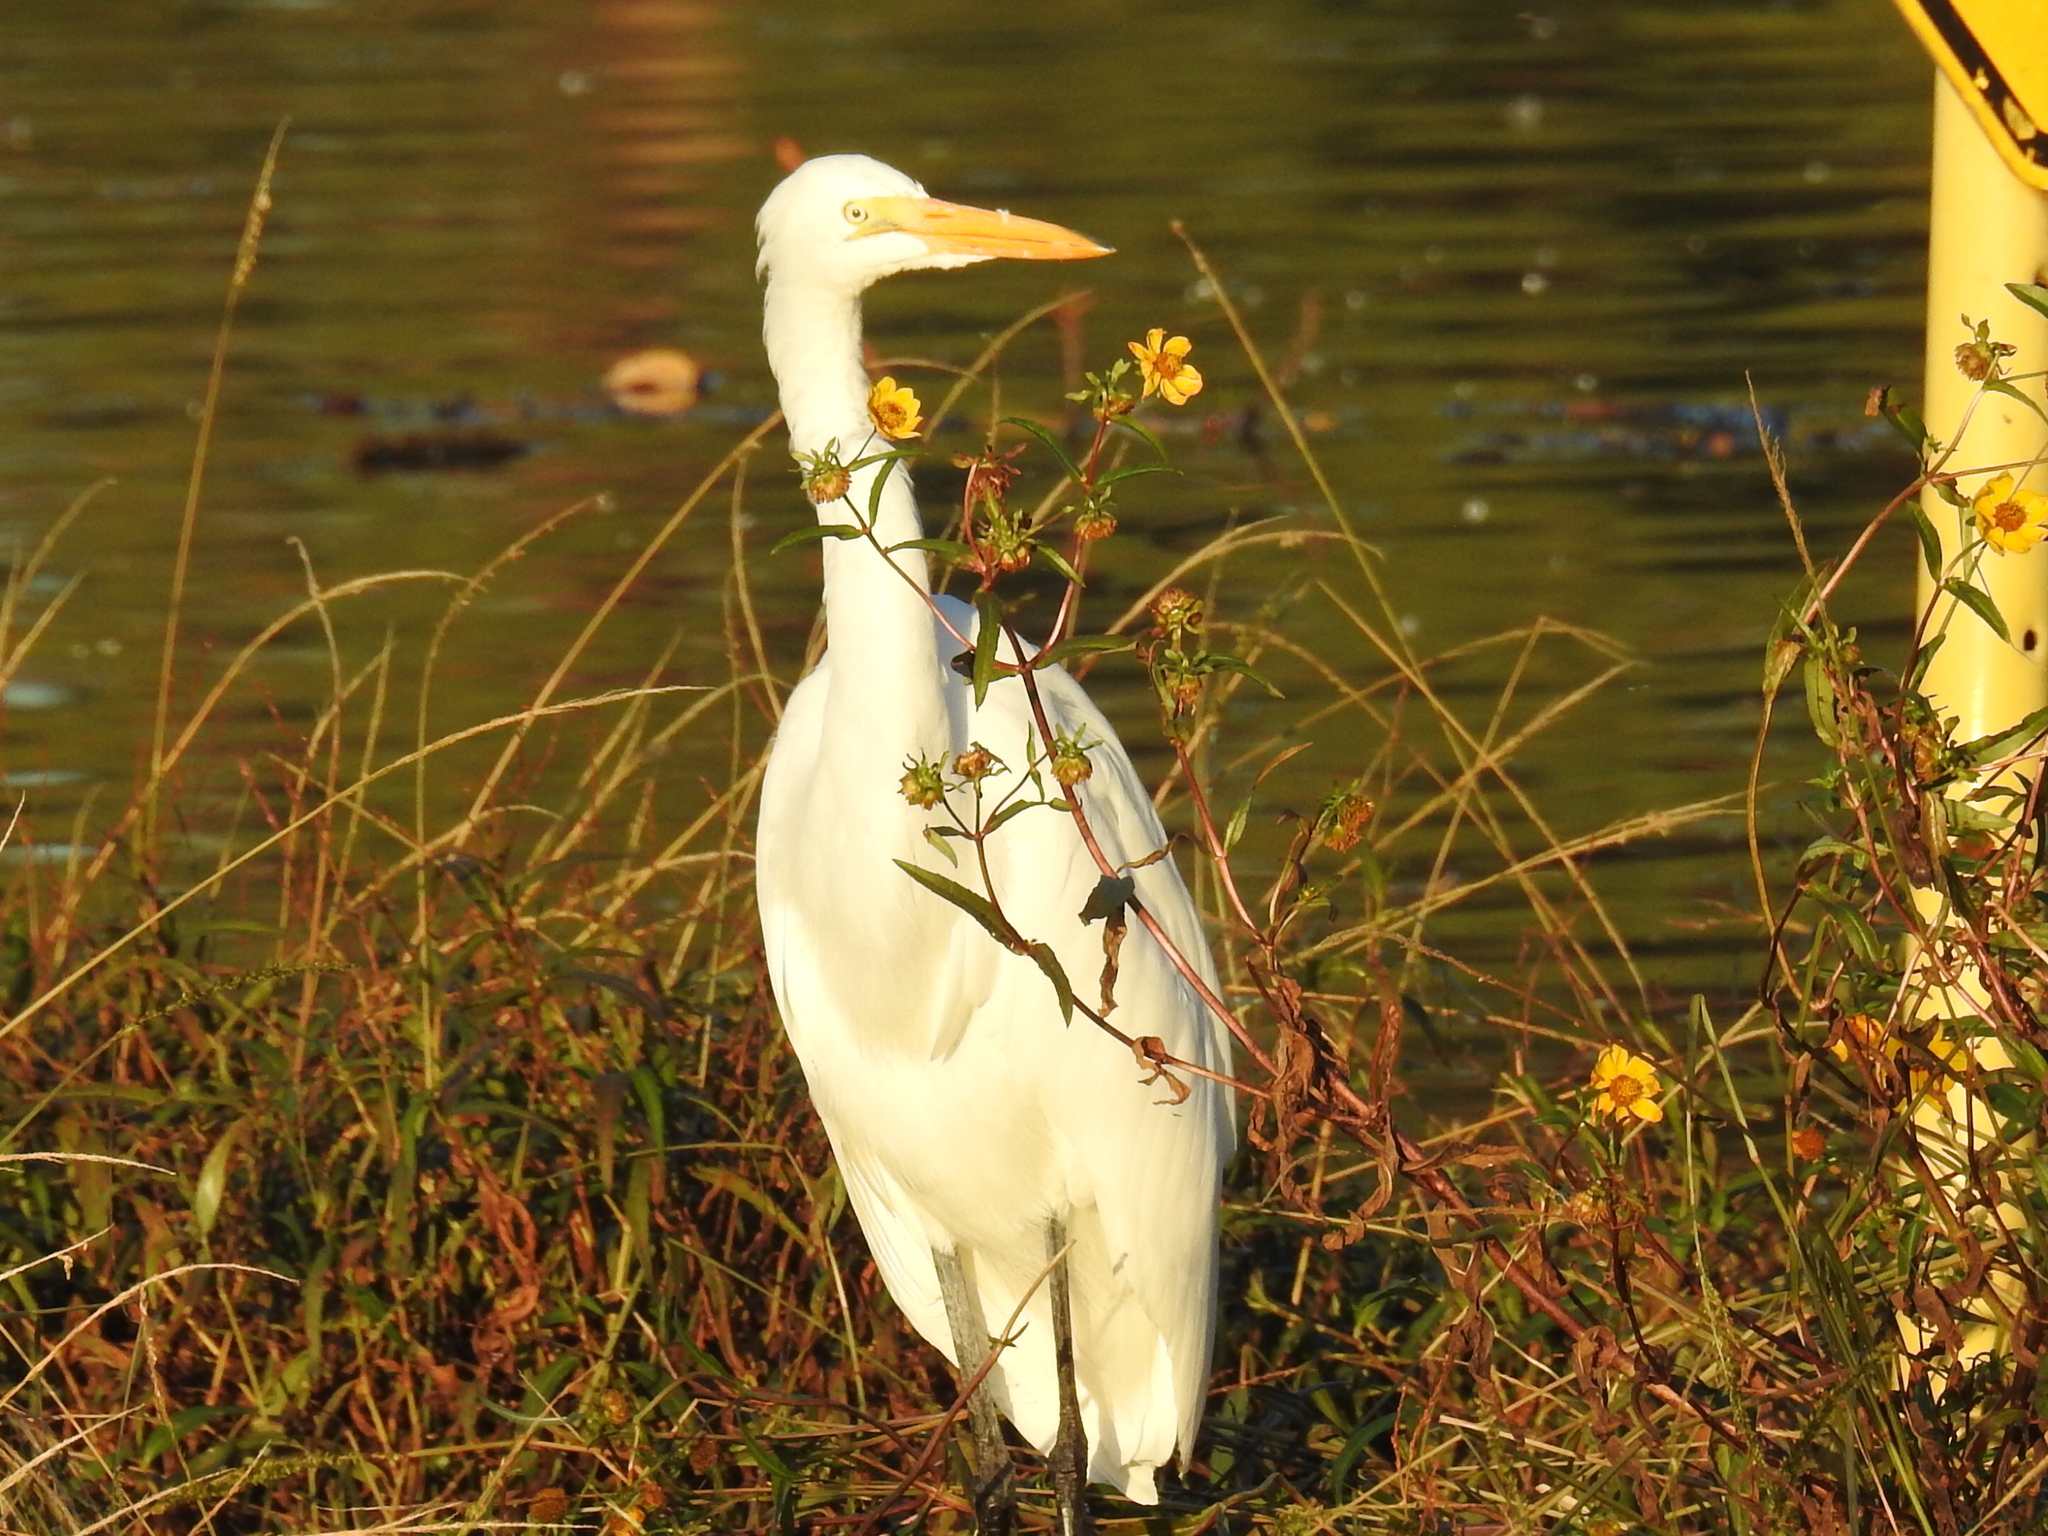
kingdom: Animalia
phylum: Chordata
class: Aves
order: Pelecaniformes
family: Ardeidae
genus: Ardea
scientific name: Ardea alba
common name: Great egret
